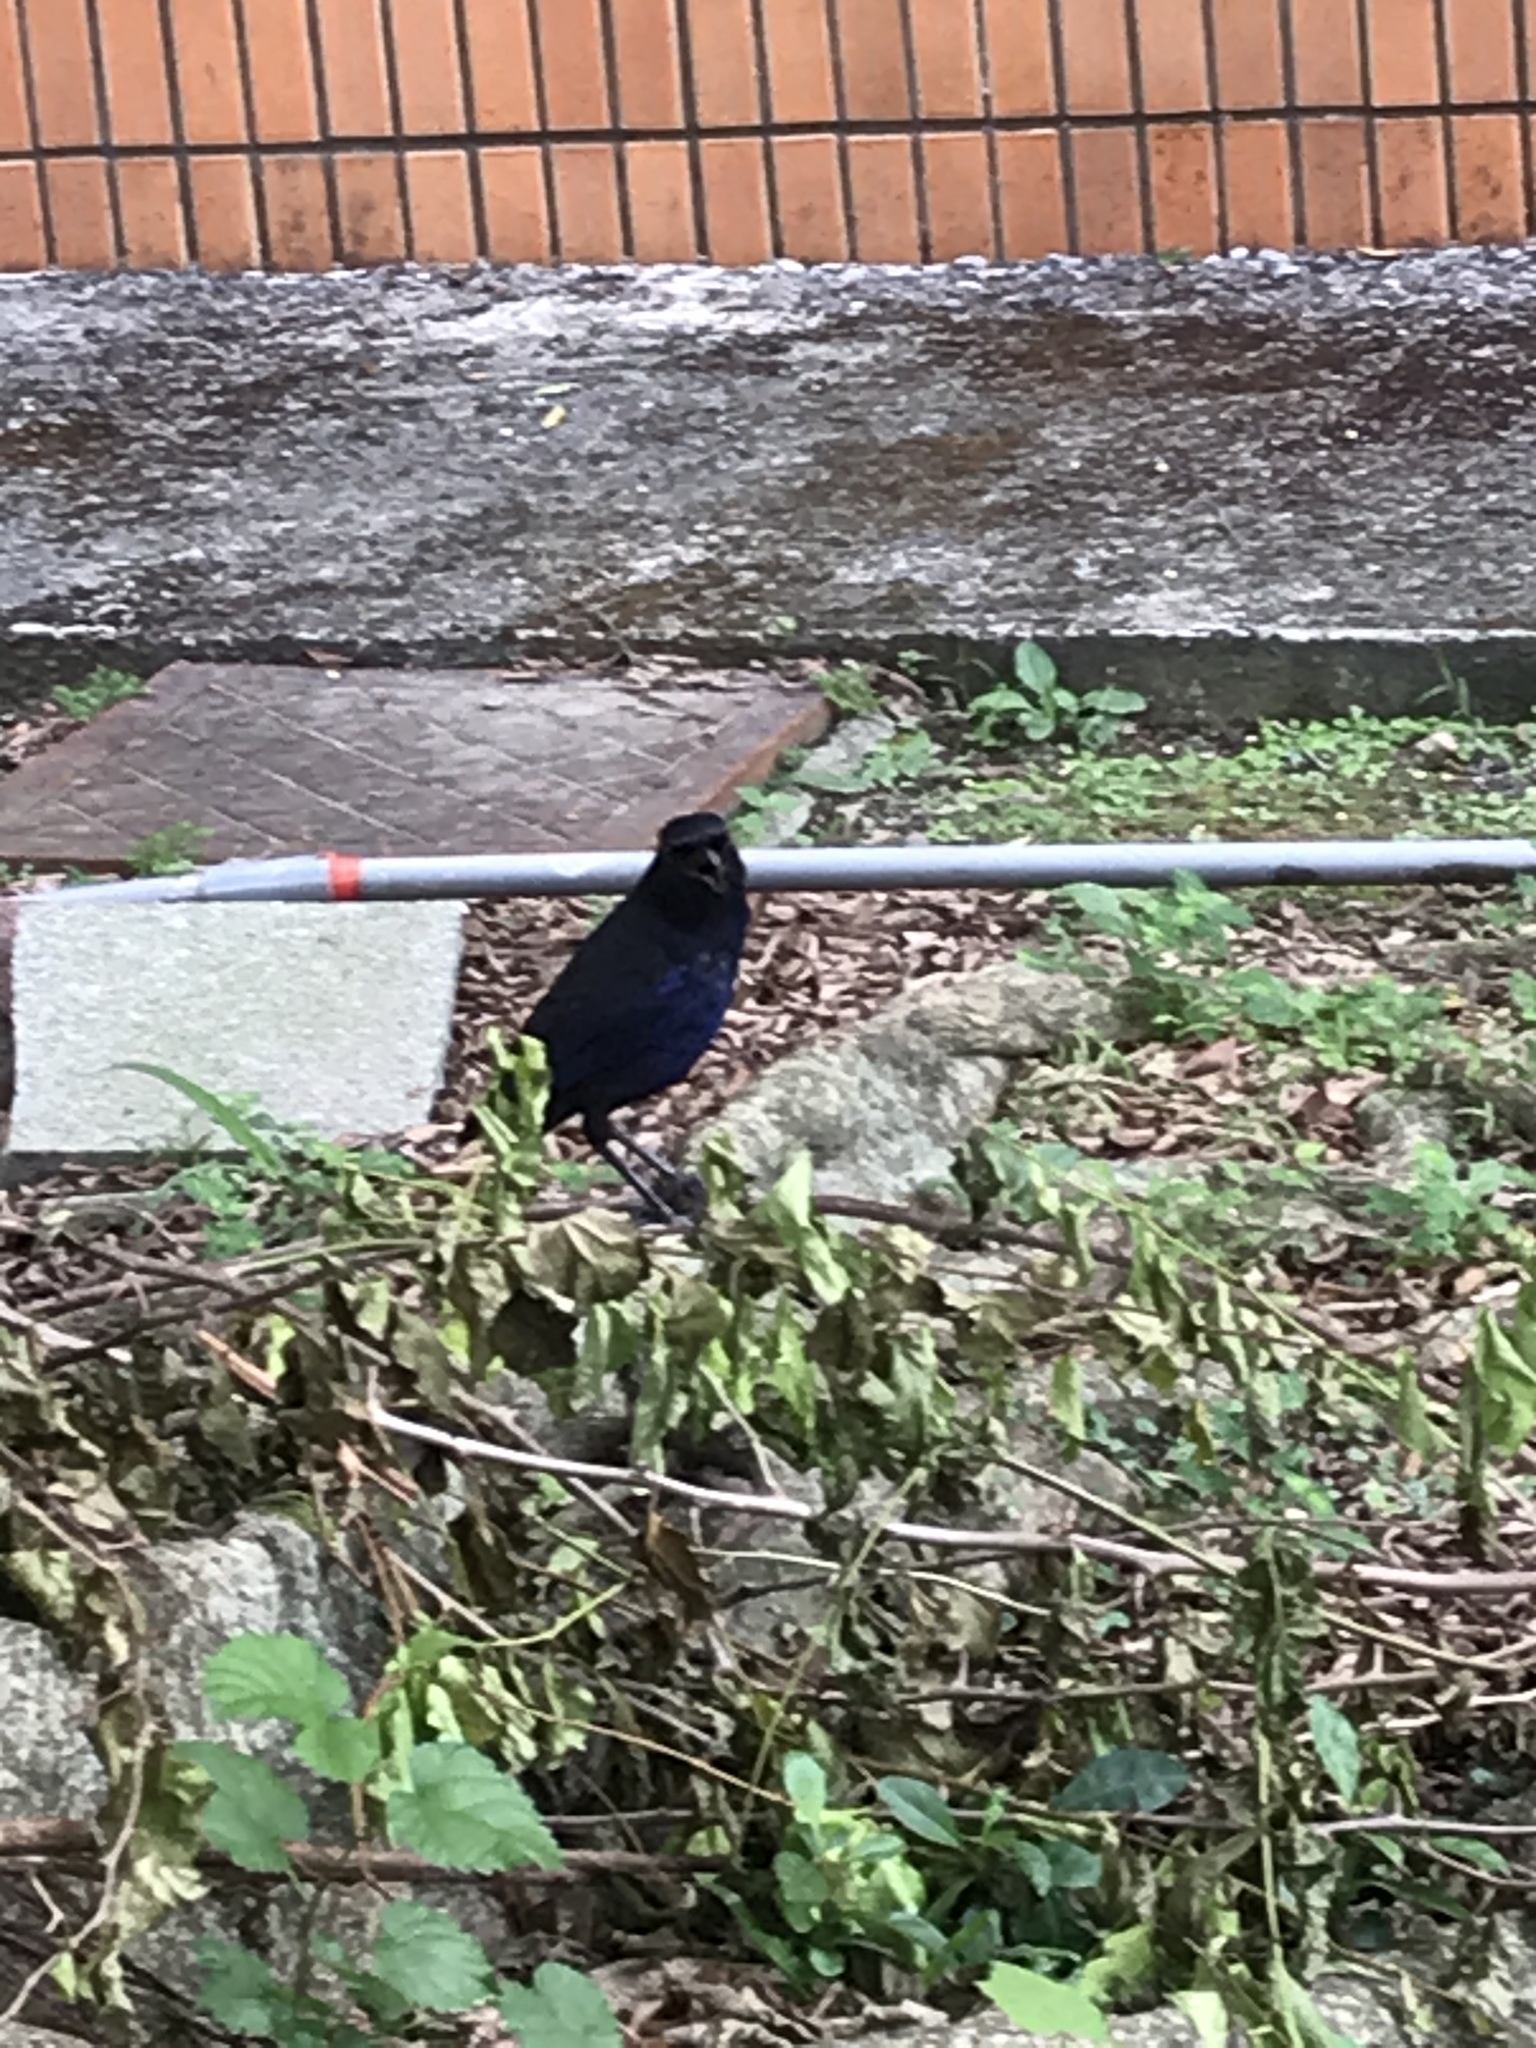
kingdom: Animalia
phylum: Chordata
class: Aves
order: Passeriformes
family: Muscicapidae
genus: Myophonus
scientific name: Myophonus insularis
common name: Taiwan whistling-thrush
